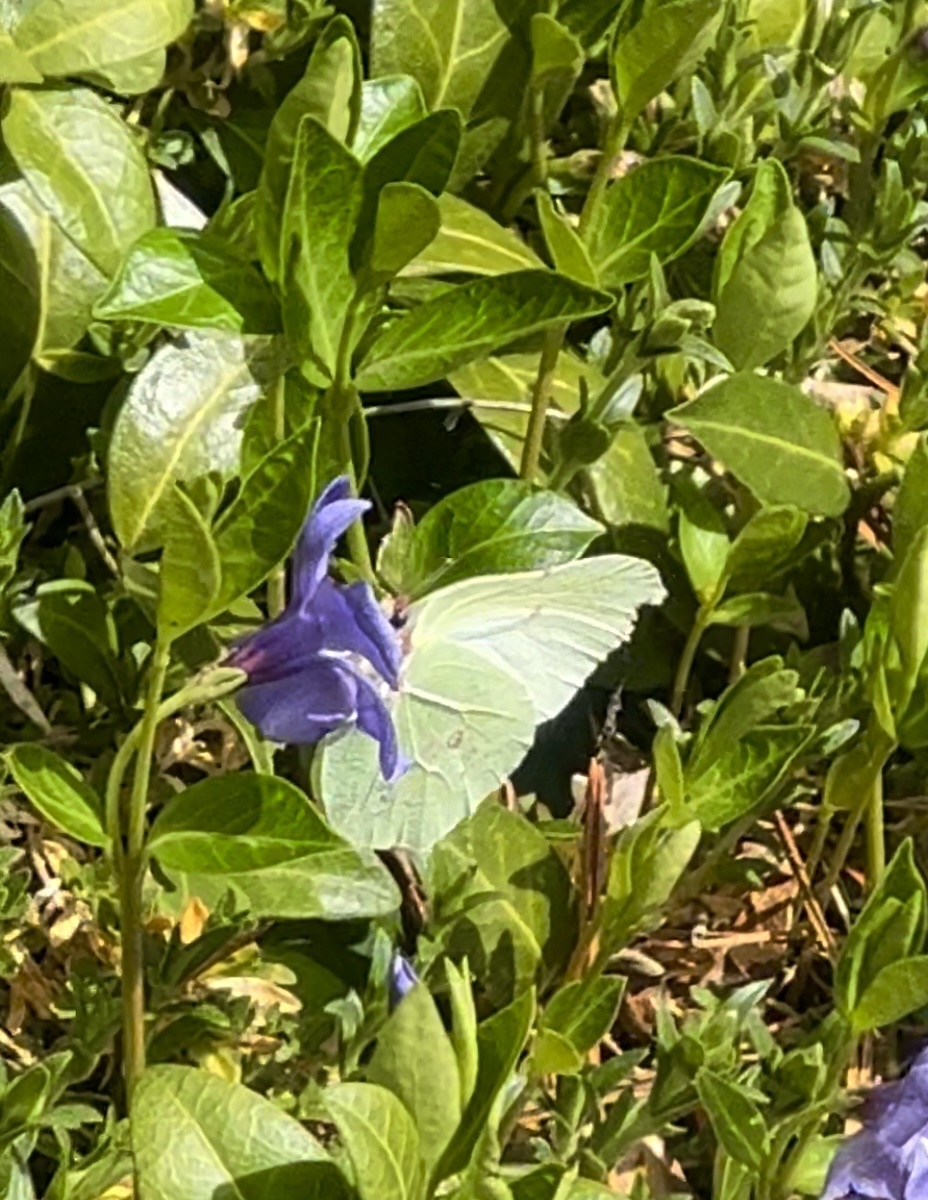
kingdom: Animalia
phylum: Arthropoda
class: Insecta
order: Lepidoptera
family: Pieridae
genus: Gonepteryx
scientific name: Gonepteryx rhamni
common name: Brimstone
